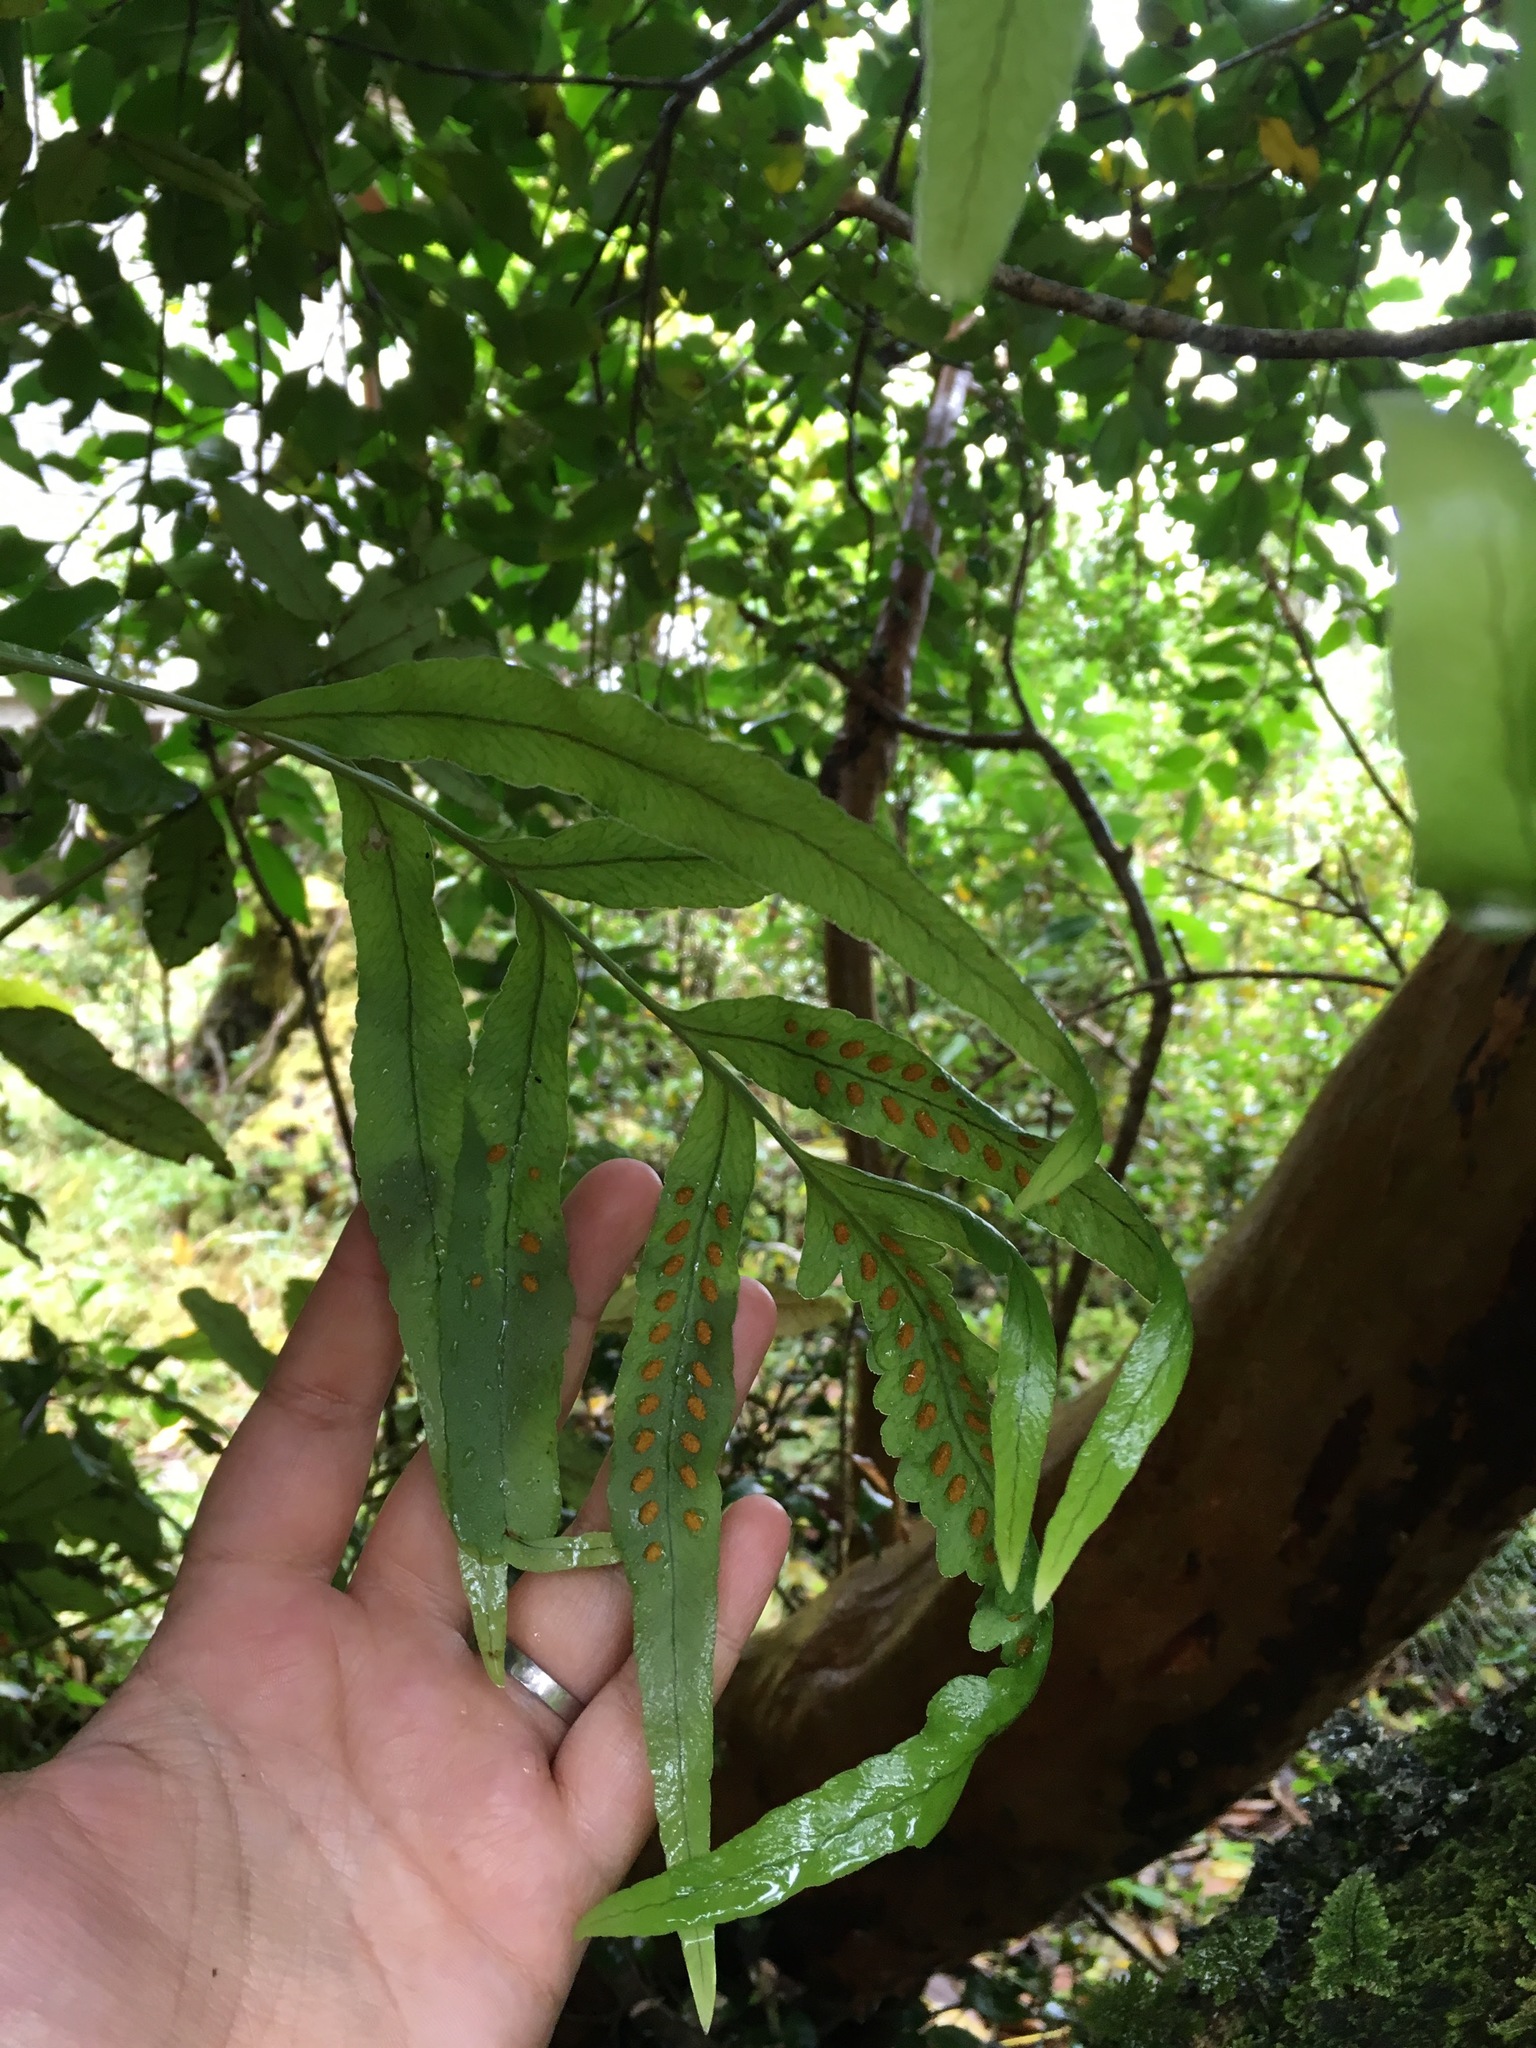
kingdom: Plantae
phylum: Tracheophyta
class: Polypodiopsida
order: Polypodiales
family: Polypodiaceae
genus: Synammia
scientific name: Synammia feuillei
